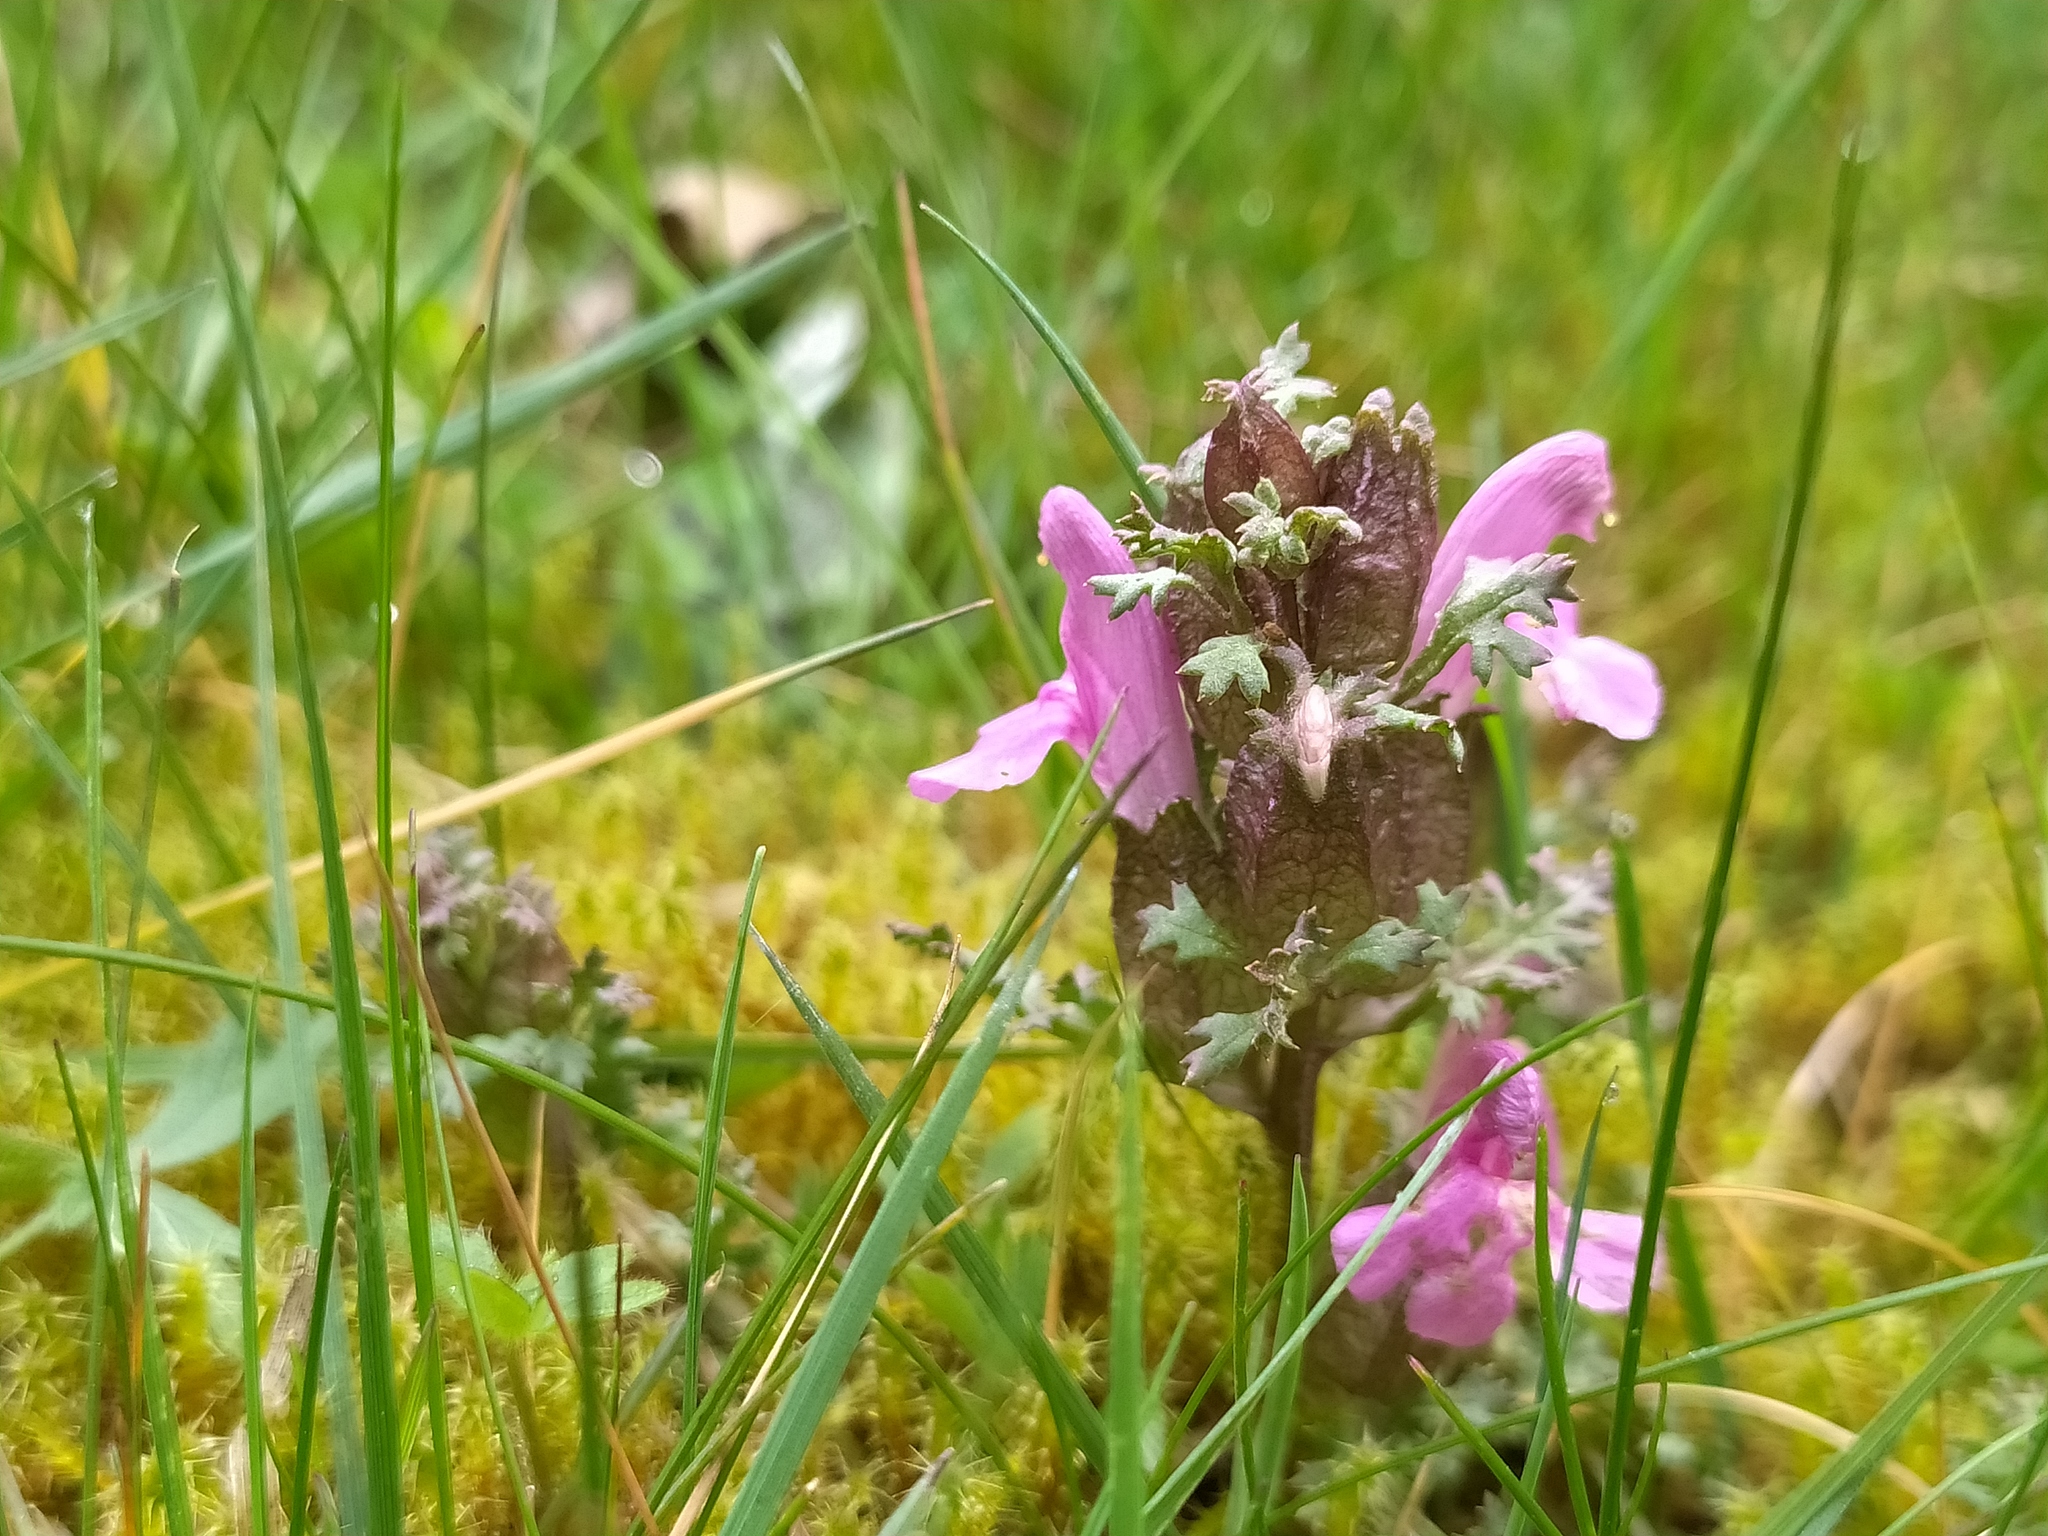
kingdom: Plantae
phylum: Tracheophyta
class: Magnoliopsida
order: Lamiales
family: Orobanchaceae
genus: Pedicularis
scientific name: Pedicularis sylvatica
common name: Lousewort
